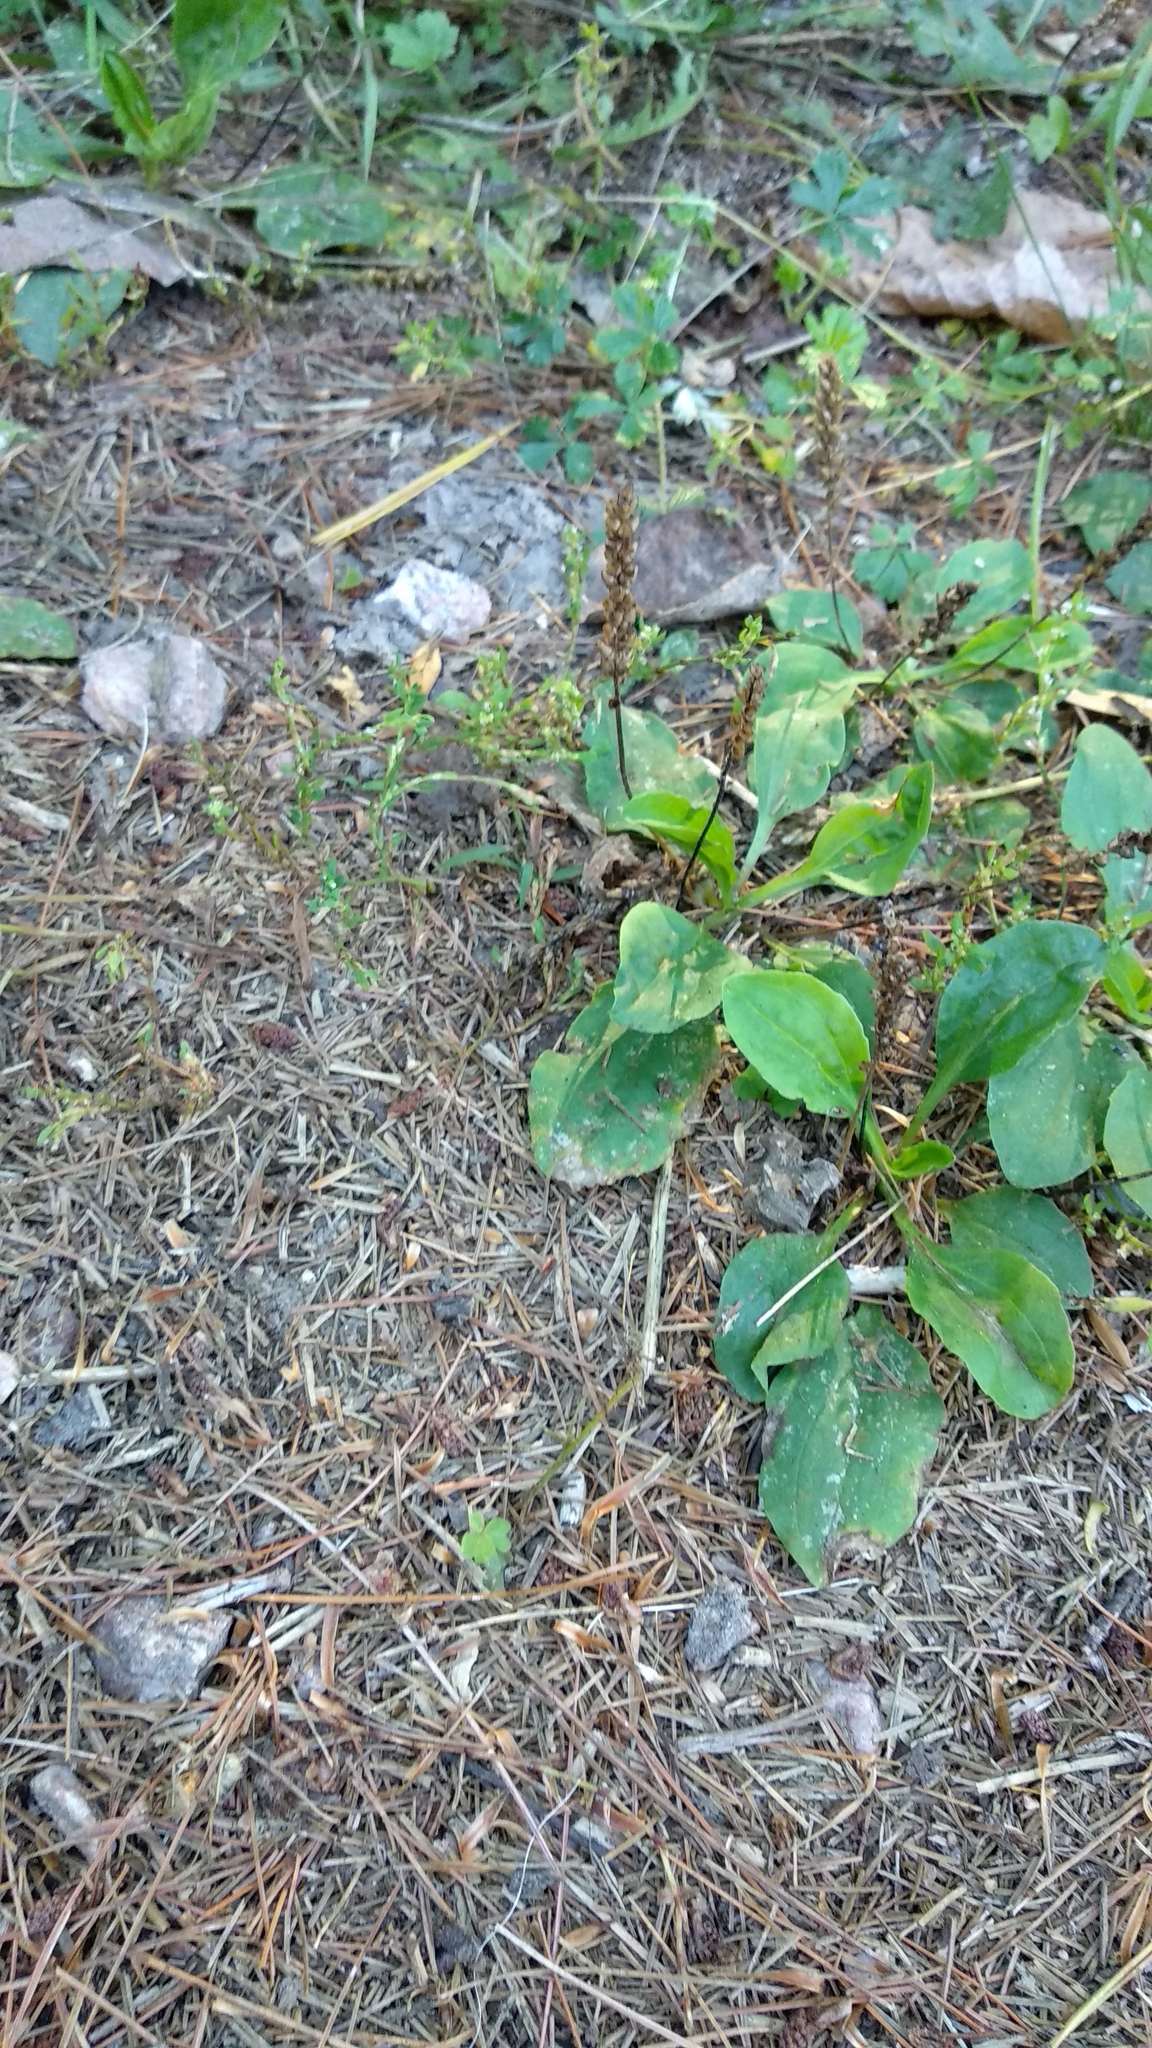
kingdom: Plantae
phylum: Tracheophyta
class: Magnoliopsida
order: Lamiales
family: Plantaginaceae
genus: Plantago
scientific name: Plantago major
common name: Common plantain
